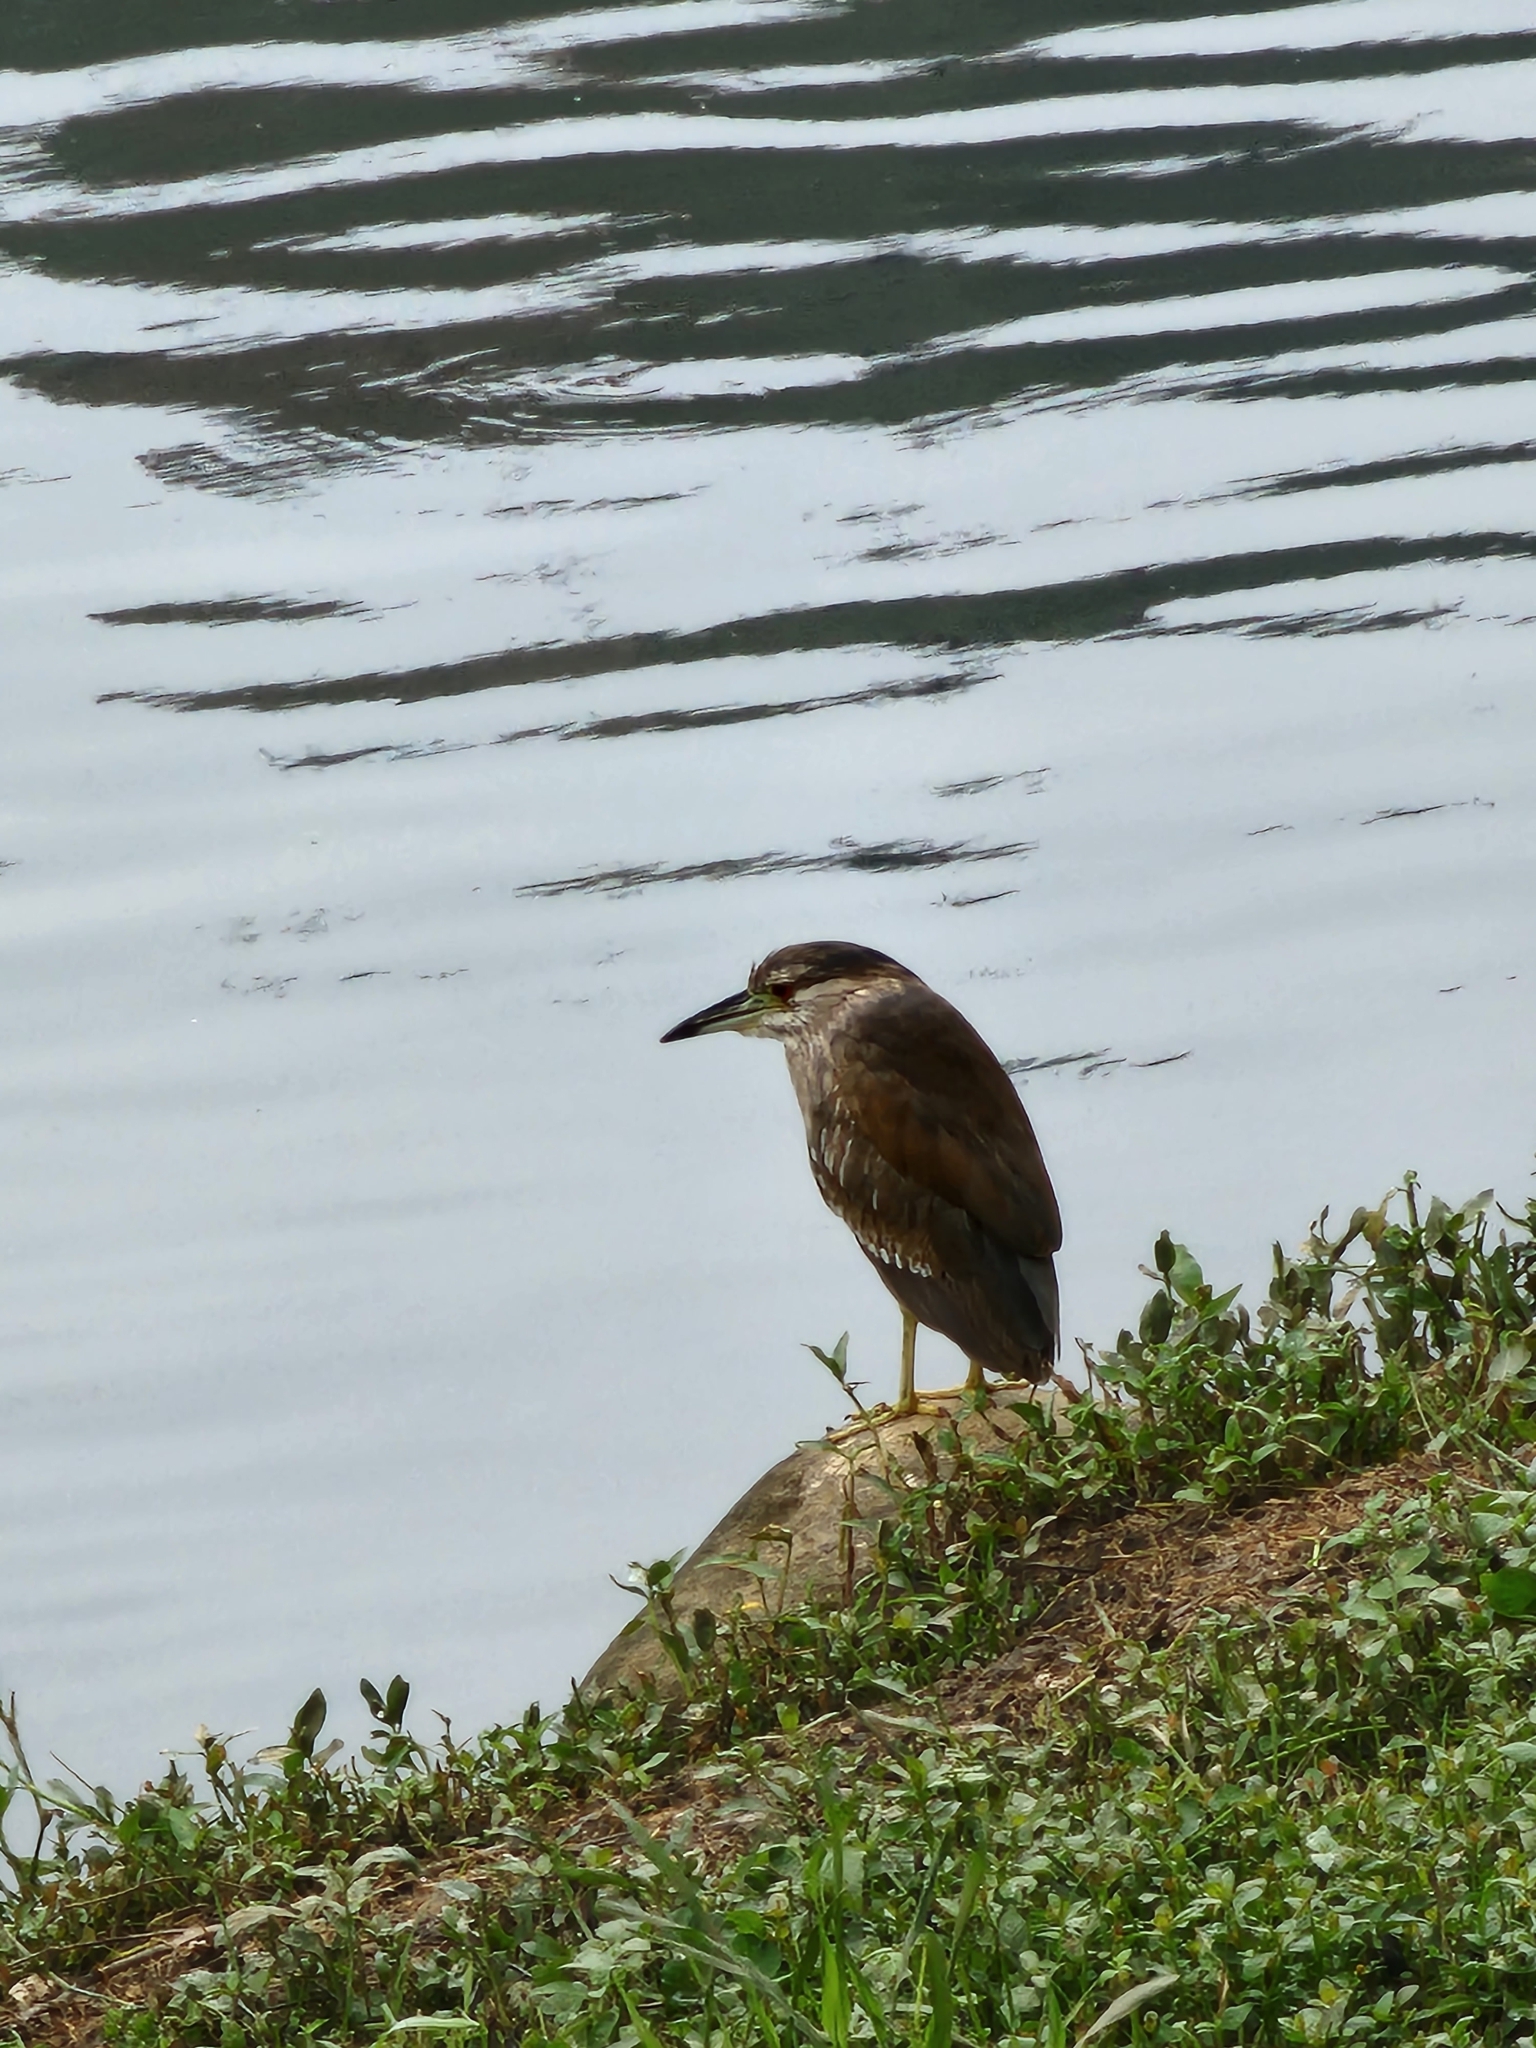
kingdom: Animalia
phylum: Chordata
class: Aves
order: Pelecaniformes
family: Ardeidae
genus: Nycticorax
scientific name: Nycticorax nycticorax
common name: Black-crowned night heron
